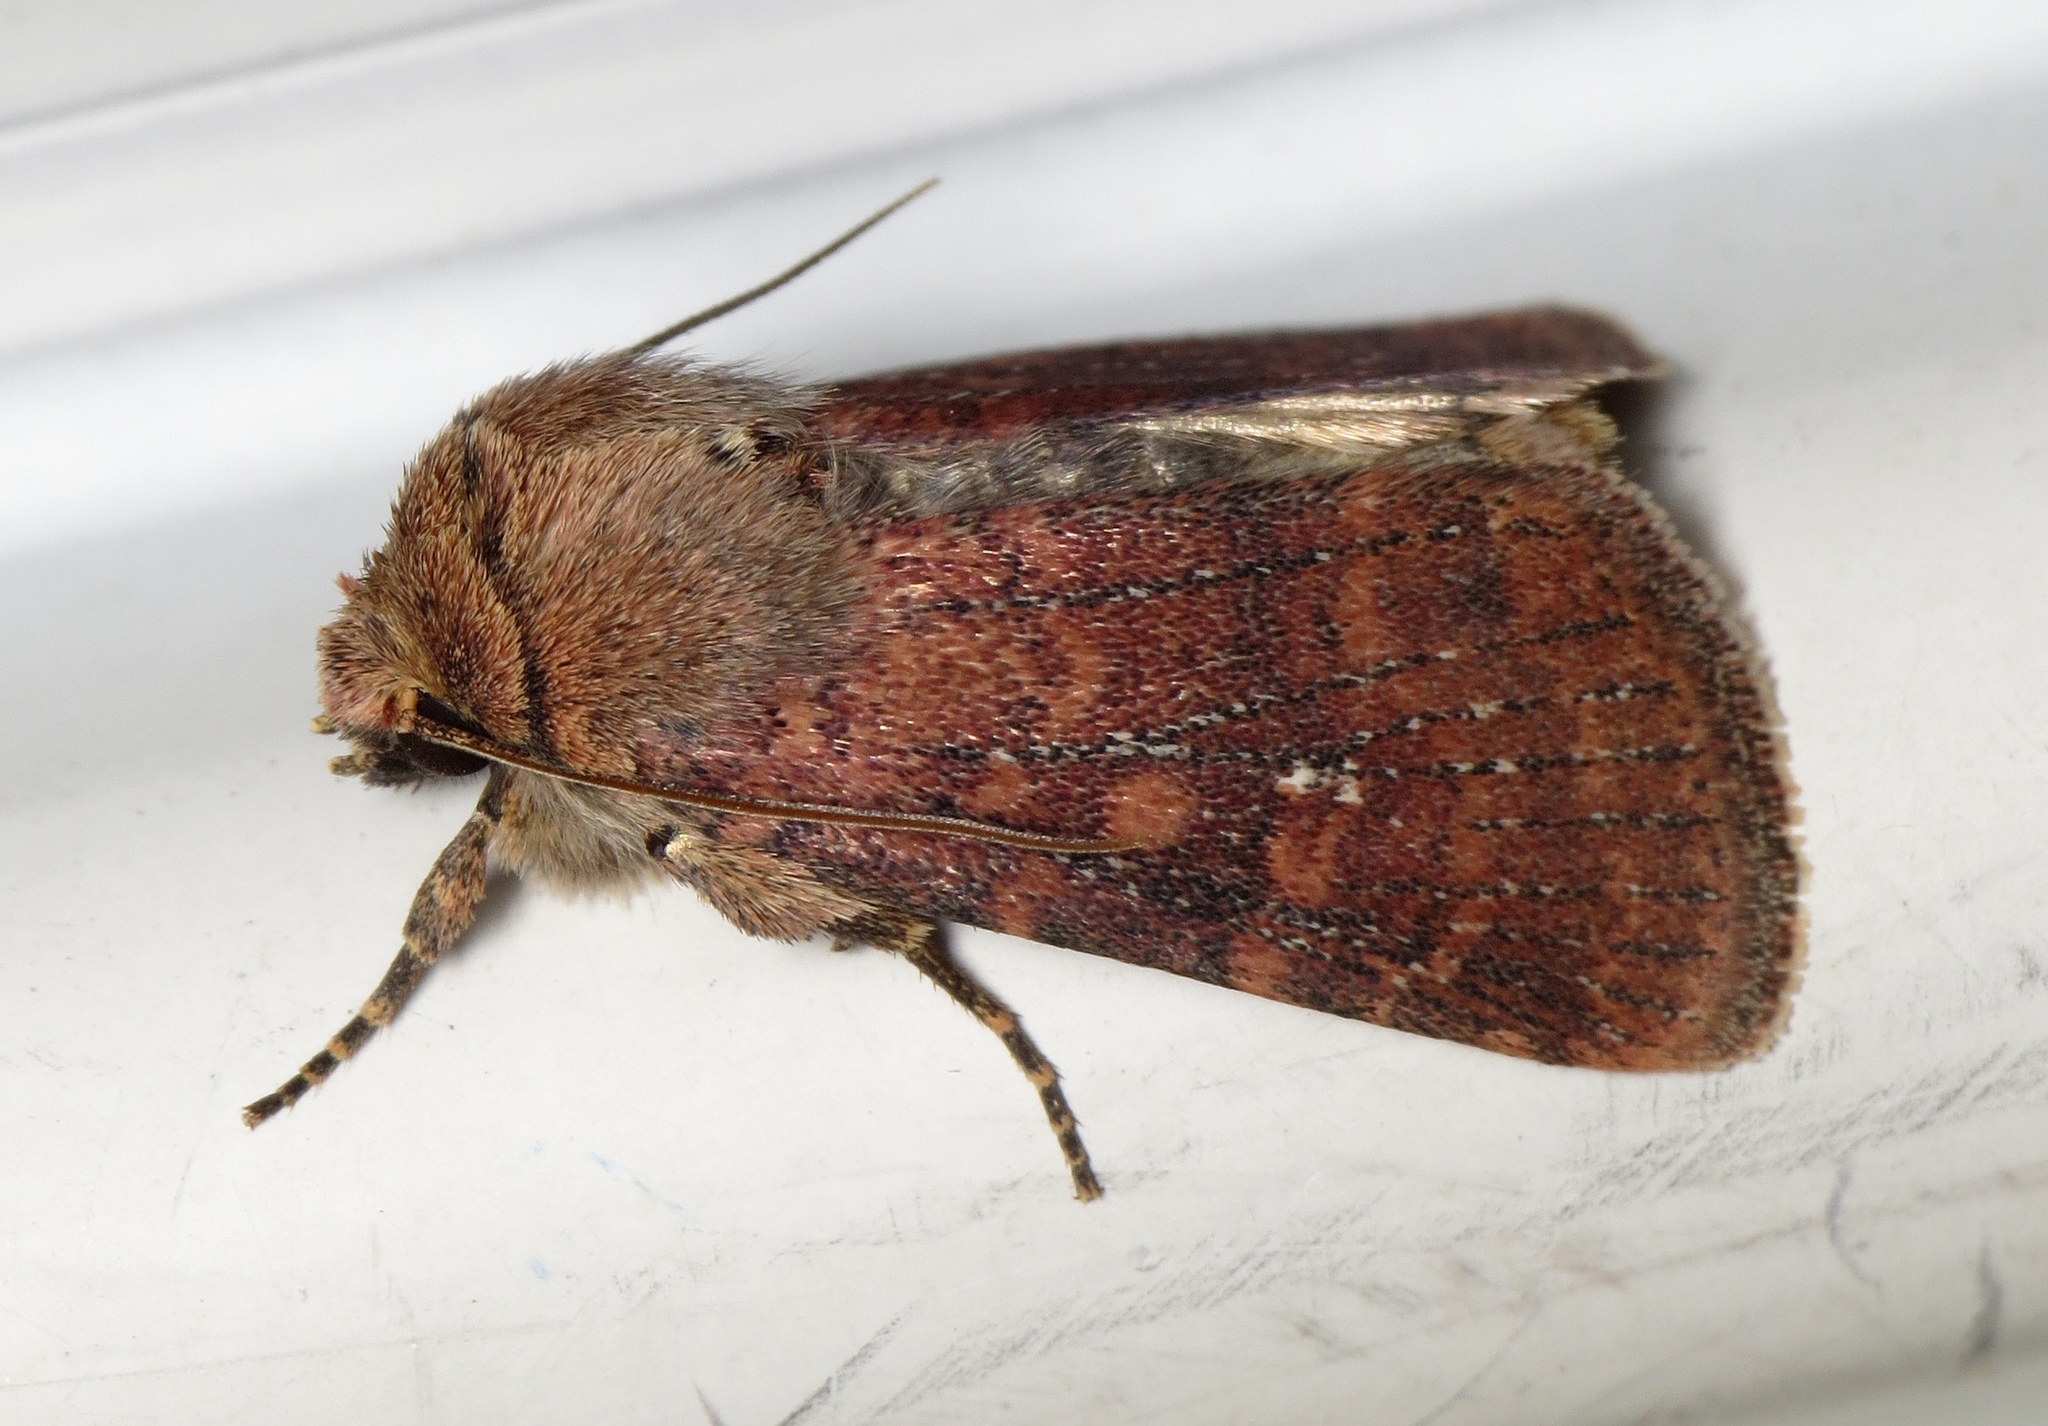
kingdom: Animalia
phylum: Arthropoda
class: Insecta
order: Lepidoptera
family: Noctuidae
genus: Homorthodes
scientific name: Homorthodes lindseyi
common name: Southern scurfy quaker
